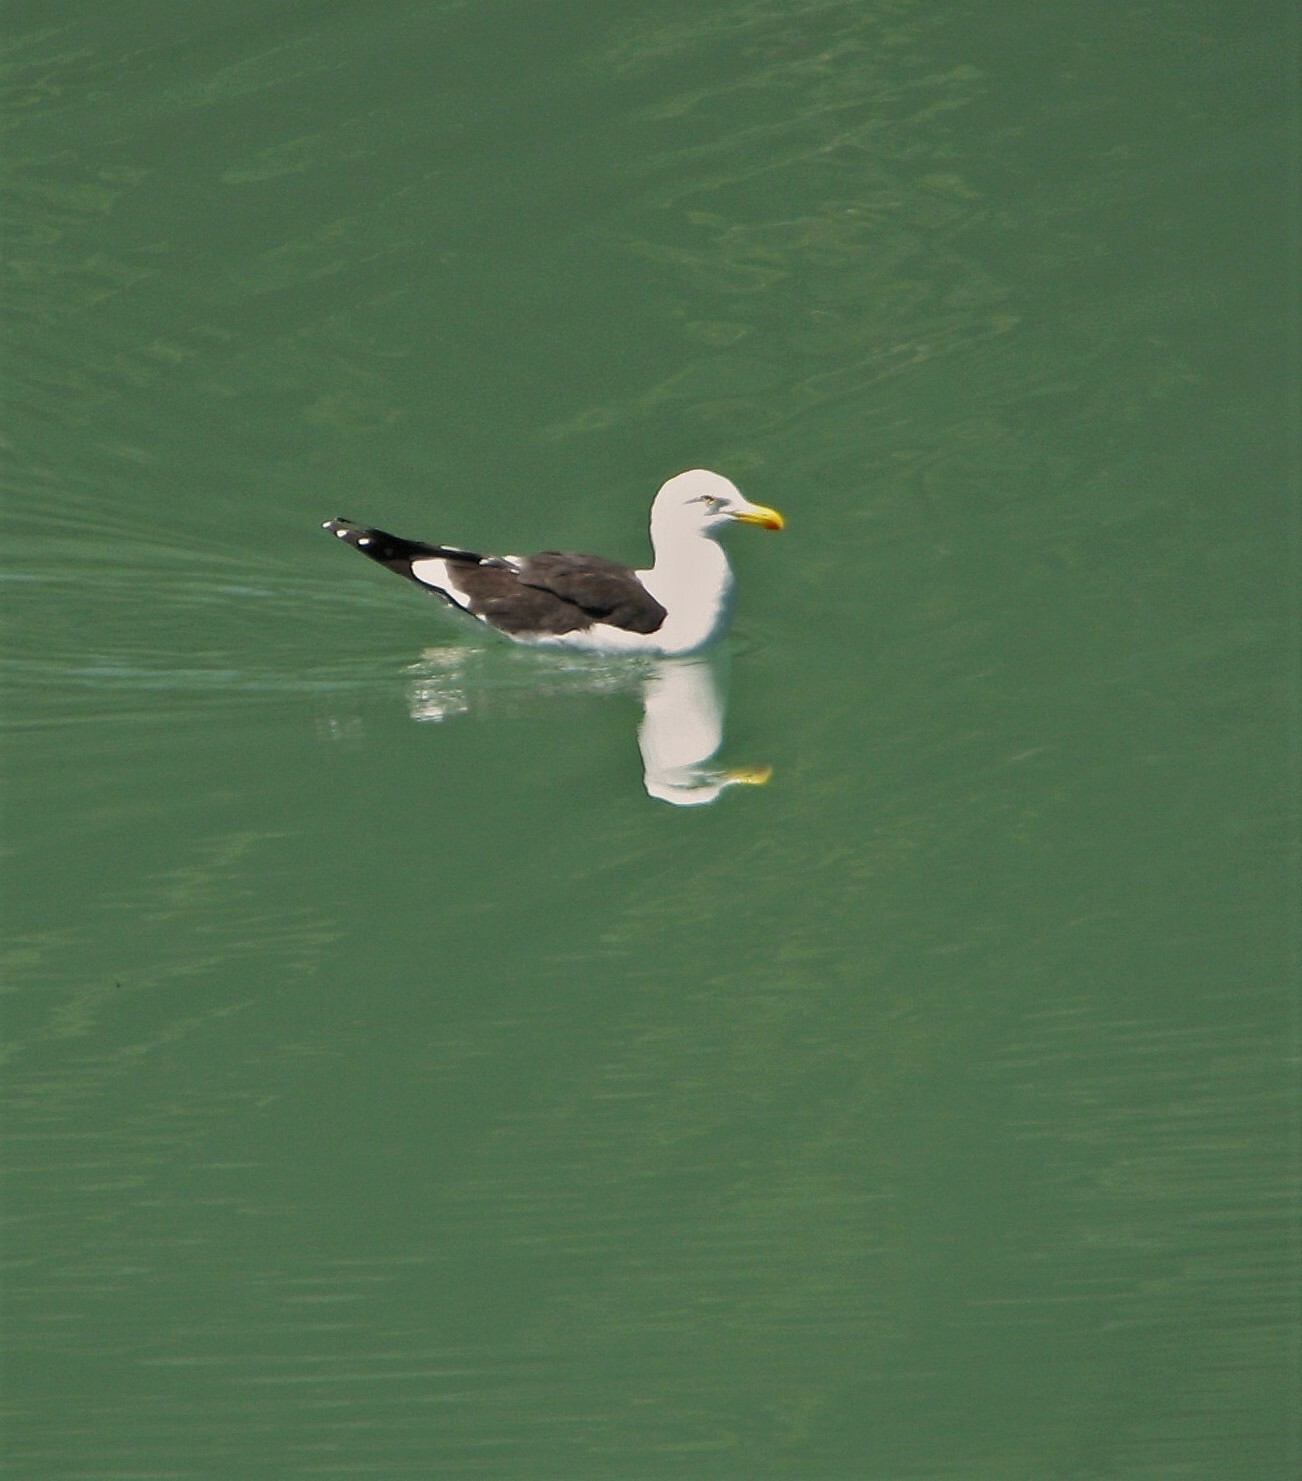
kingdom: Animalia
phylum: Chordata
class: Aves
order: Charadriiformes
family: Laridae
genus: Larus
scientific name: Larus dominicanus
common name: Kelp gull
